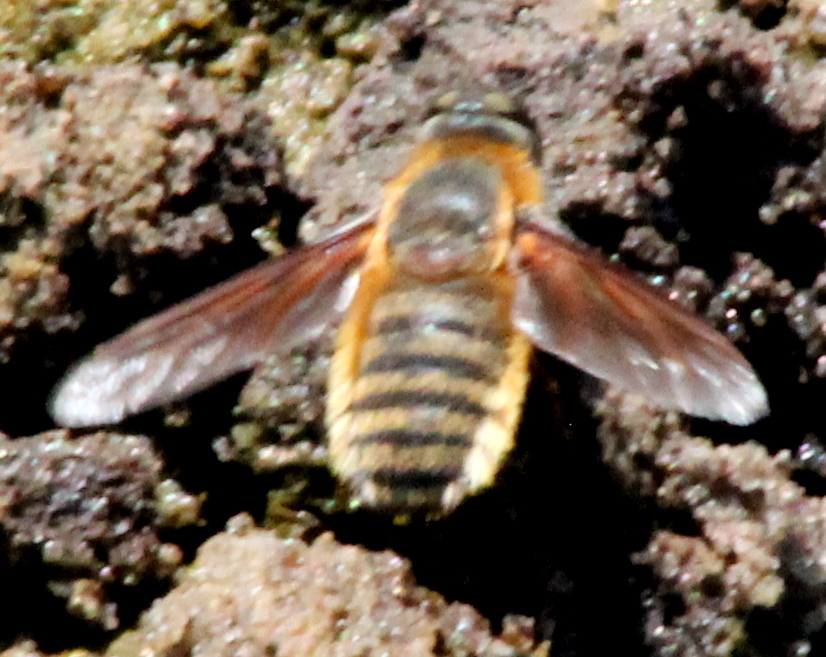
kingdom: Animalia
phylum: Arthropoda
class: Insecta
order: Diptera
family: Bombyliidae
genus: Poecilanthrax
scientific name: Poecilanthrax lucifer
